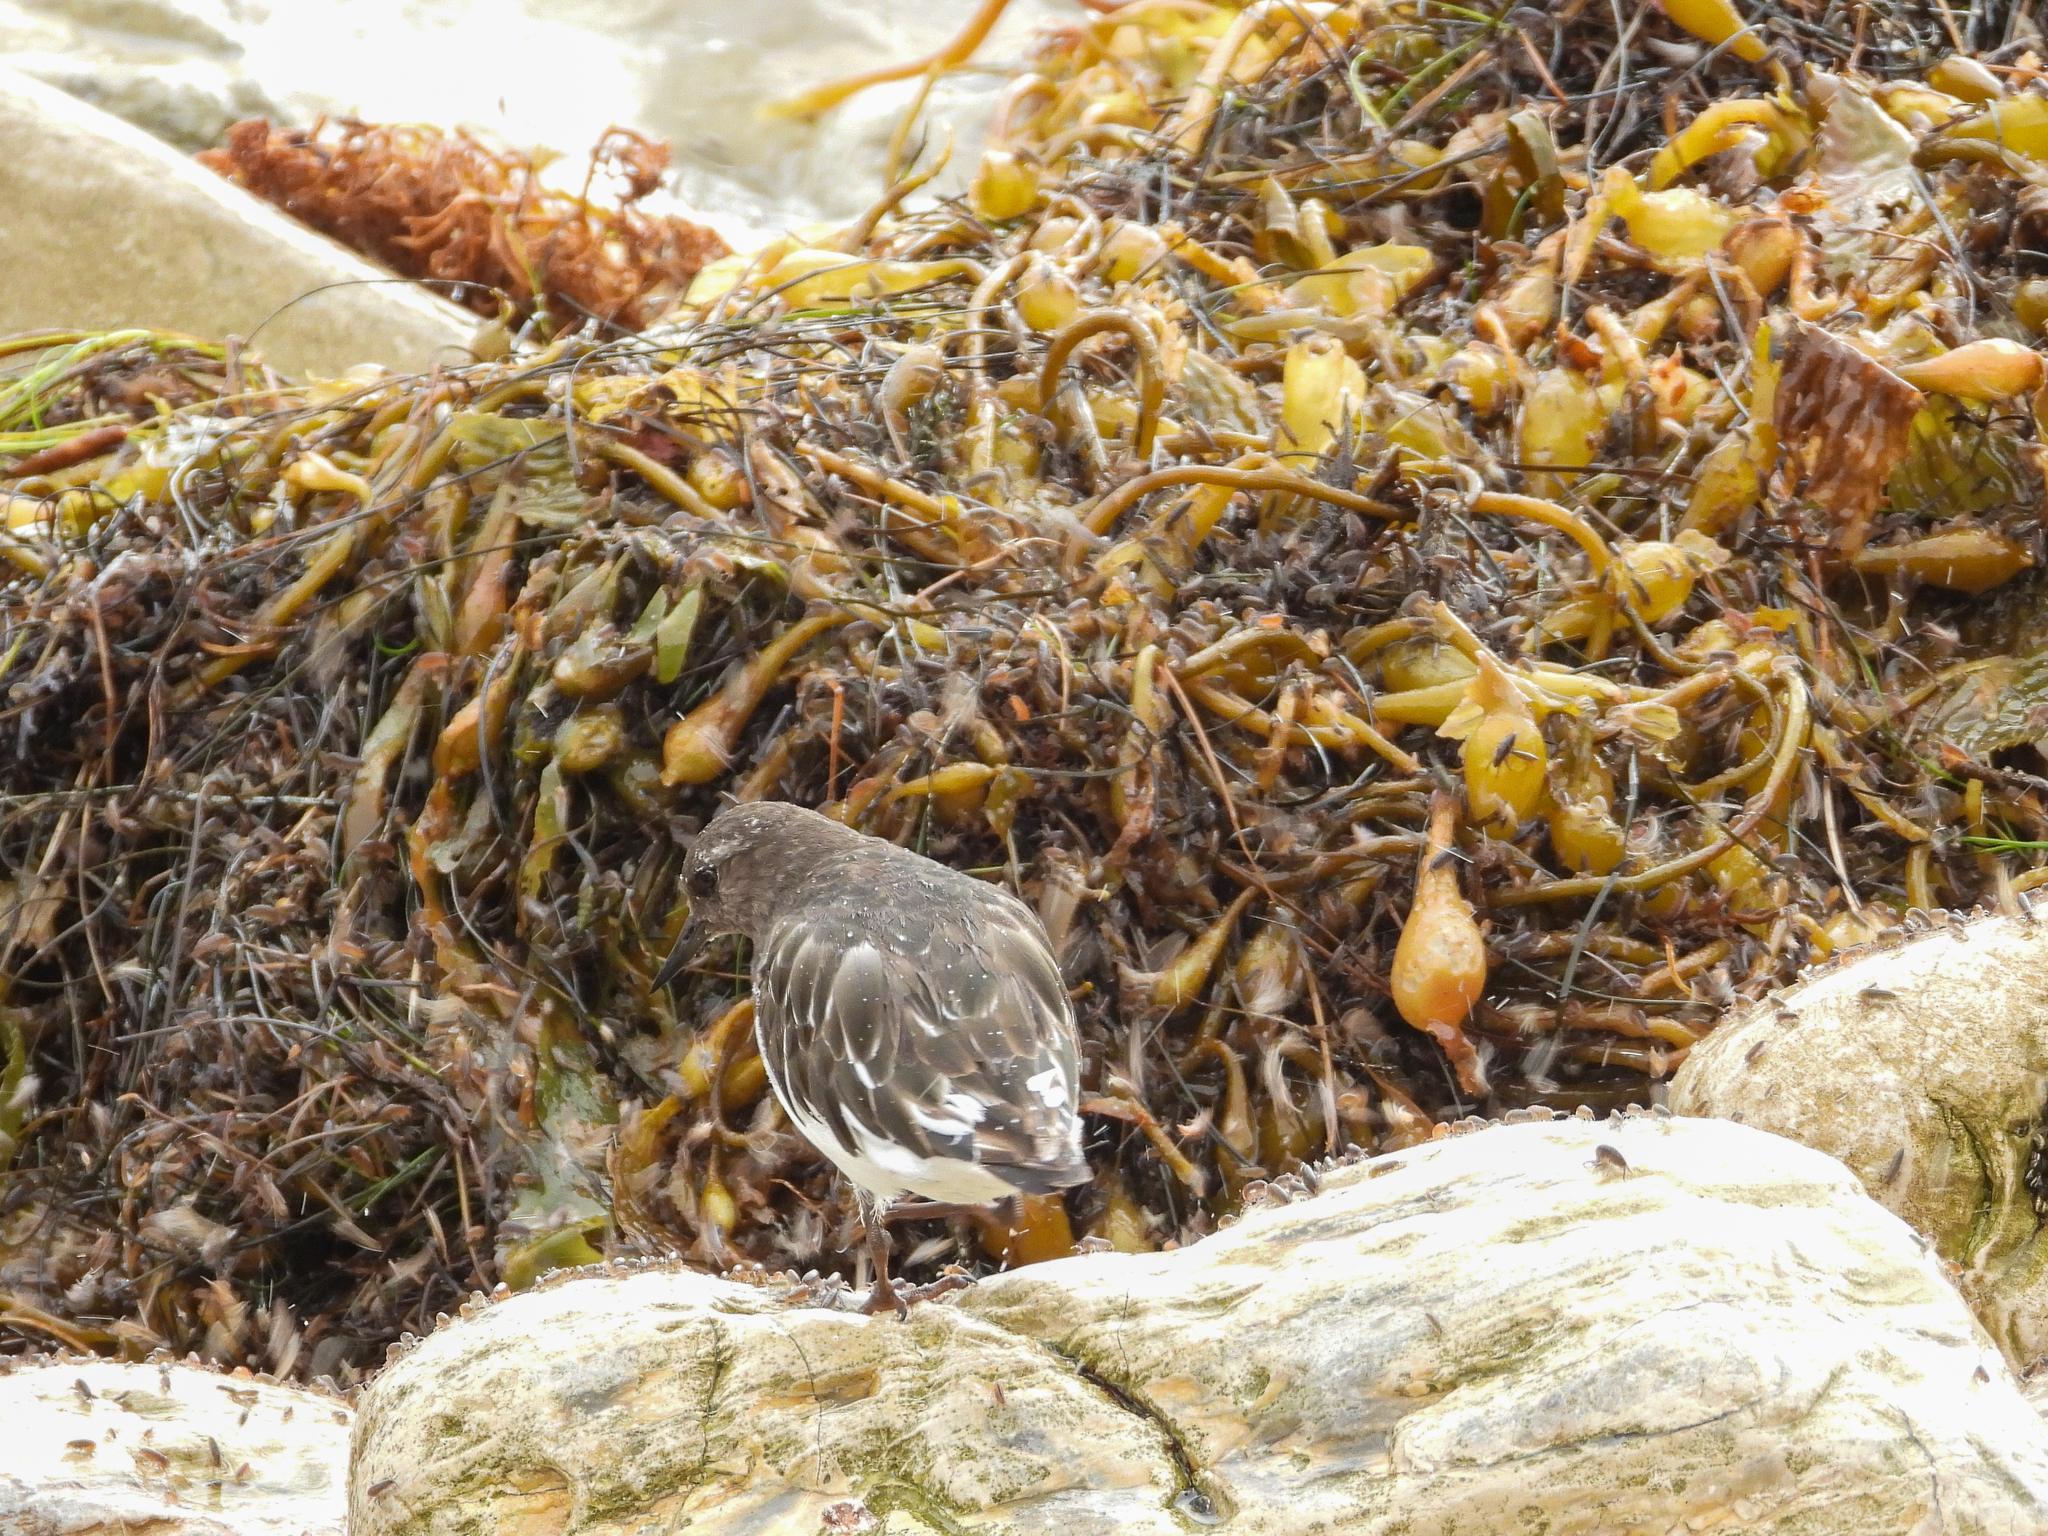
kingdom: Animalia
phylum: Chordata
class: Aves
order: Charadriiformes
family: Scolopacidae
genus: Arenaria
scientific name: Arenaria melanocephala
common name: Black turnstone
